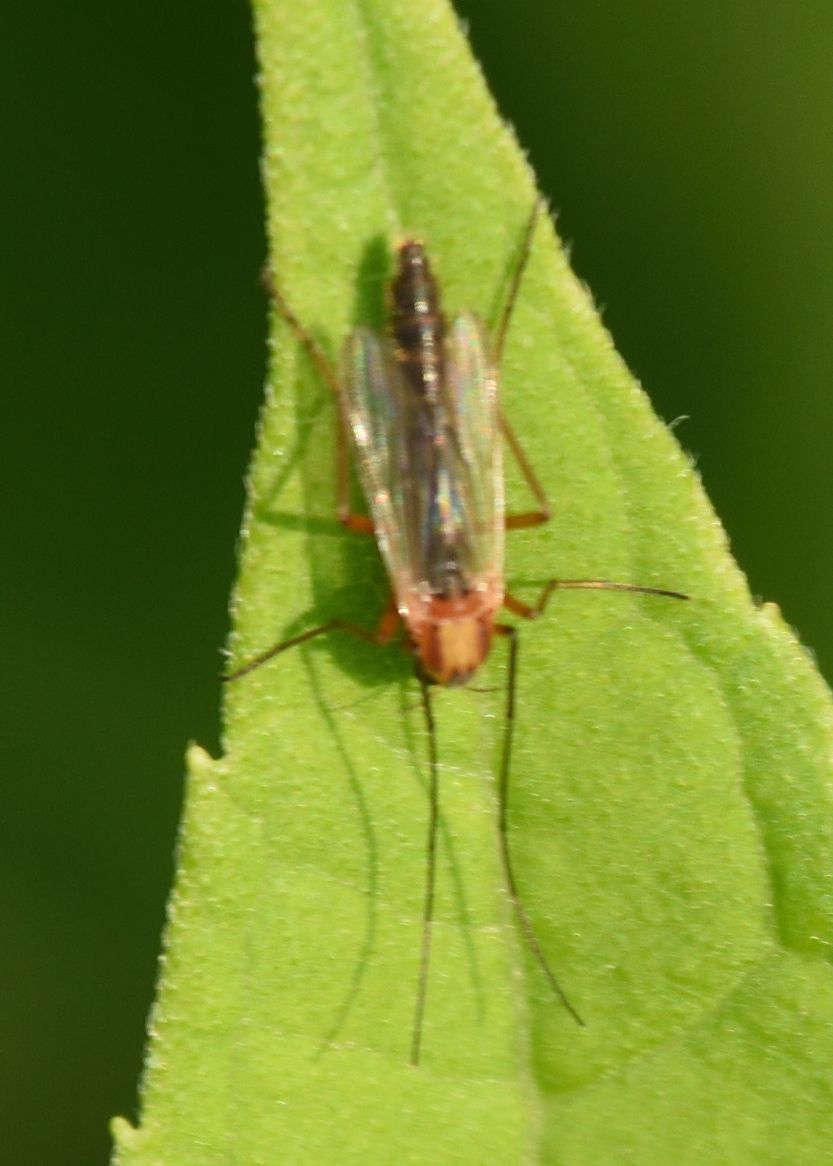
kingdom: Animalia
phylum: Arthropoda
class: Insecta
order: Diptera
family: Chironomidae
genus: Chironomus
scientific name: Chironomus ochreatus
